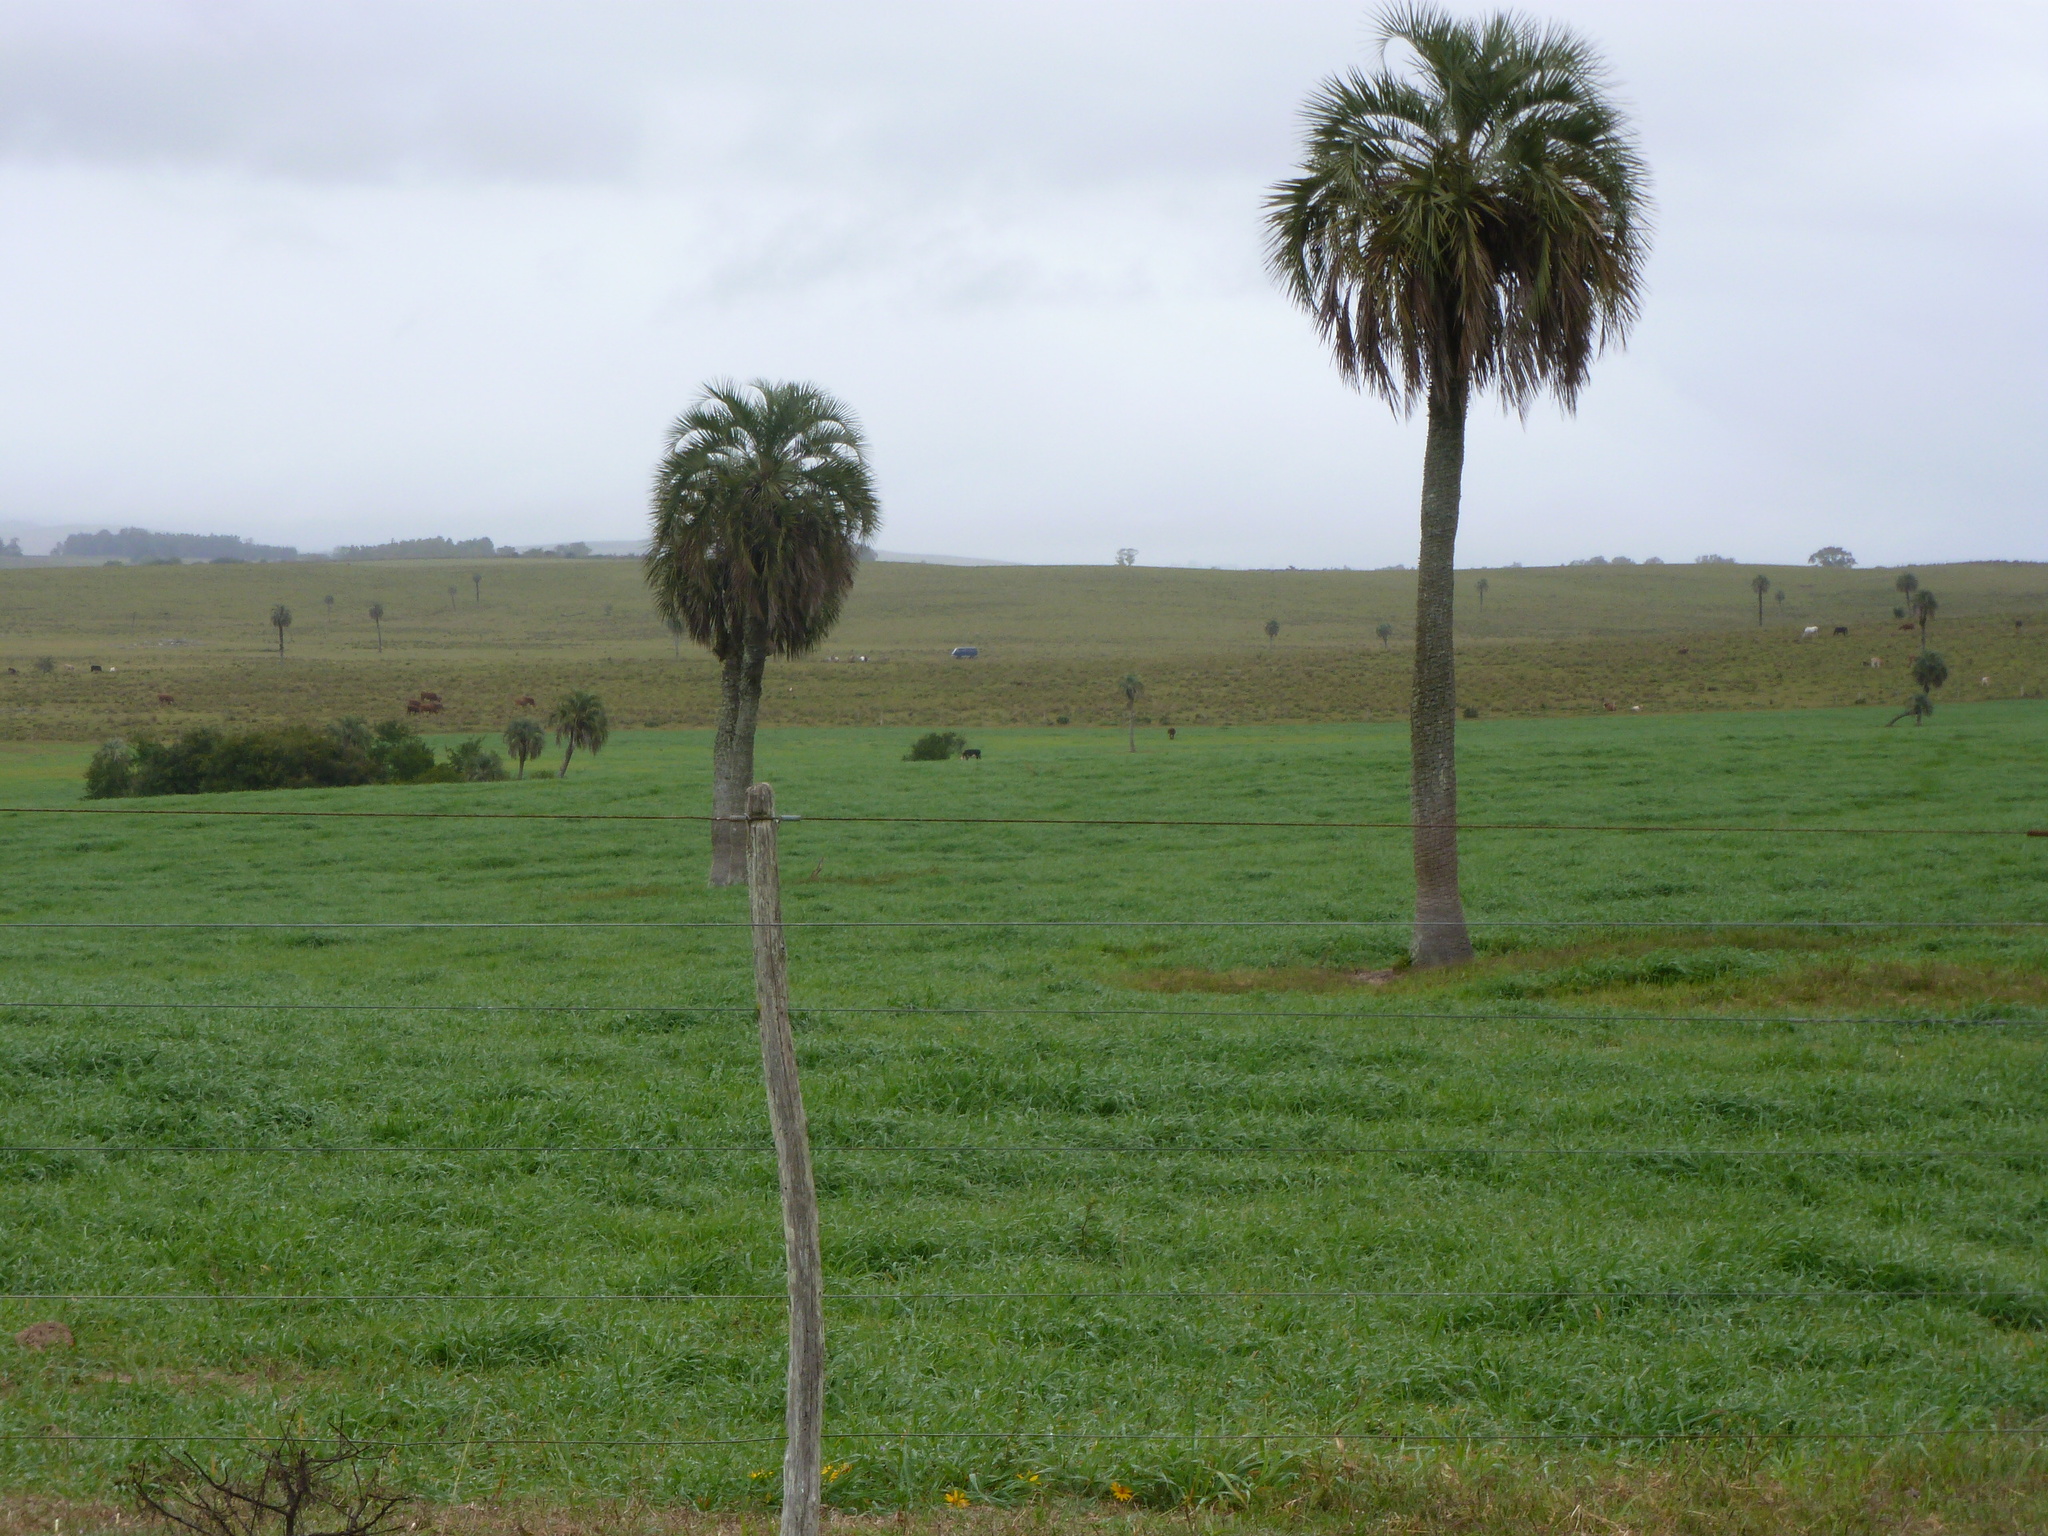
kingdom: Plantae
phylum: Tracheophyta
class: Liliopsida
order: Arecales
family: Arecaceae
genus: Butia
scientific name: Butia odorata
